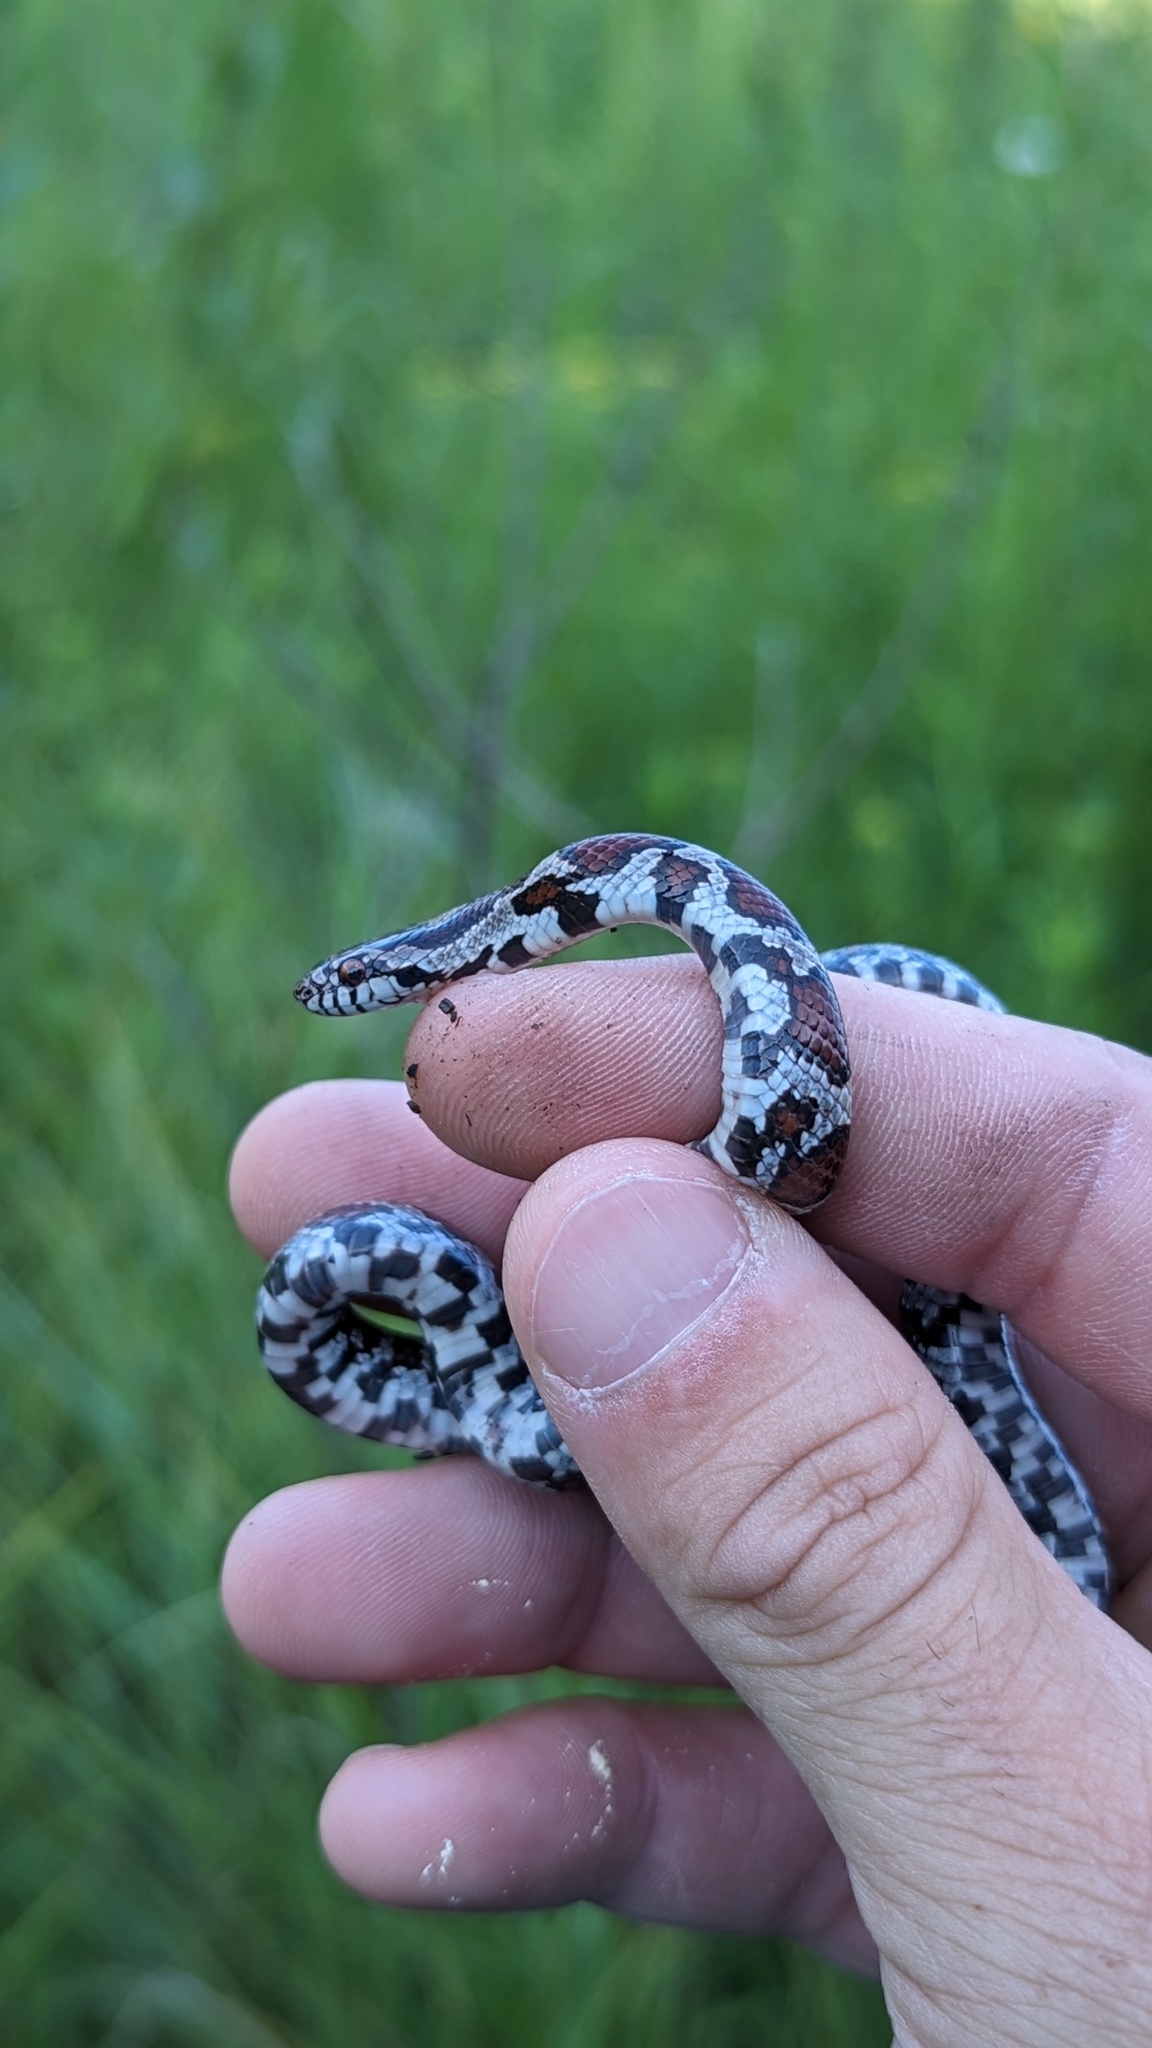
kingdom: Animalia
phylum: Chordata
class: Squamata
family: Colubridae
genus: Lampropeltis
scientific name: Lampropeltis triangulum
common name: Eastern milksnake
